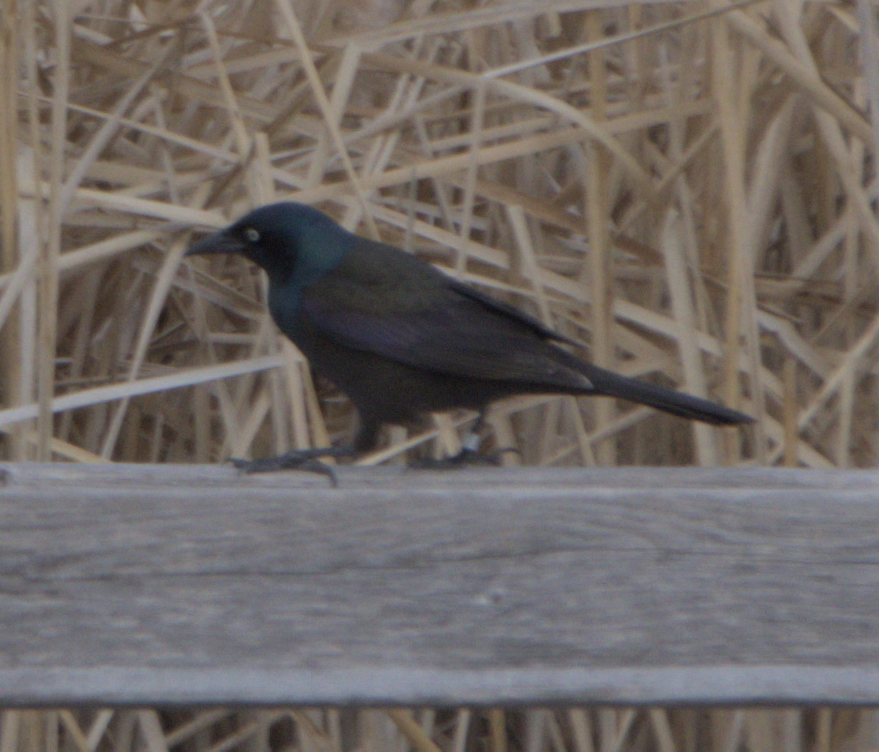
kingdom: Animalia
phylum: Chordata
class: Aves
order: Passeriformes
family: Icteridae
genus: Quiscalus
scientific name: Quiscalus quiscula
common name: Common grackle
